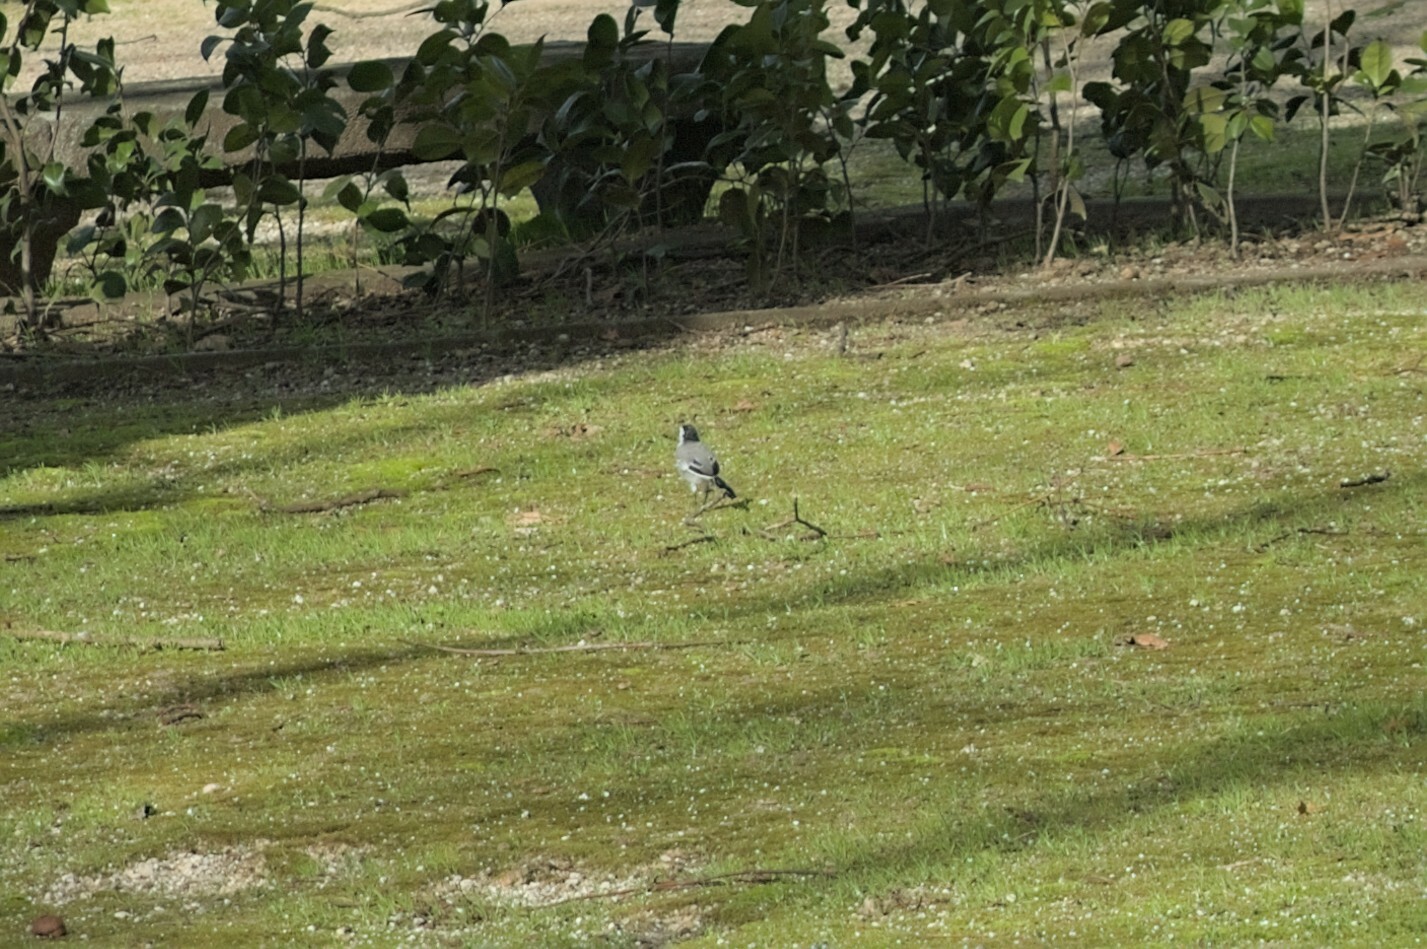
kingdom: Animalia
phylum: Chordata
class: Aves
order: Passeriformes
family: Motacillidae
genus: Motacilla
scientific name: Motacilla alba
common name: White wagtail
